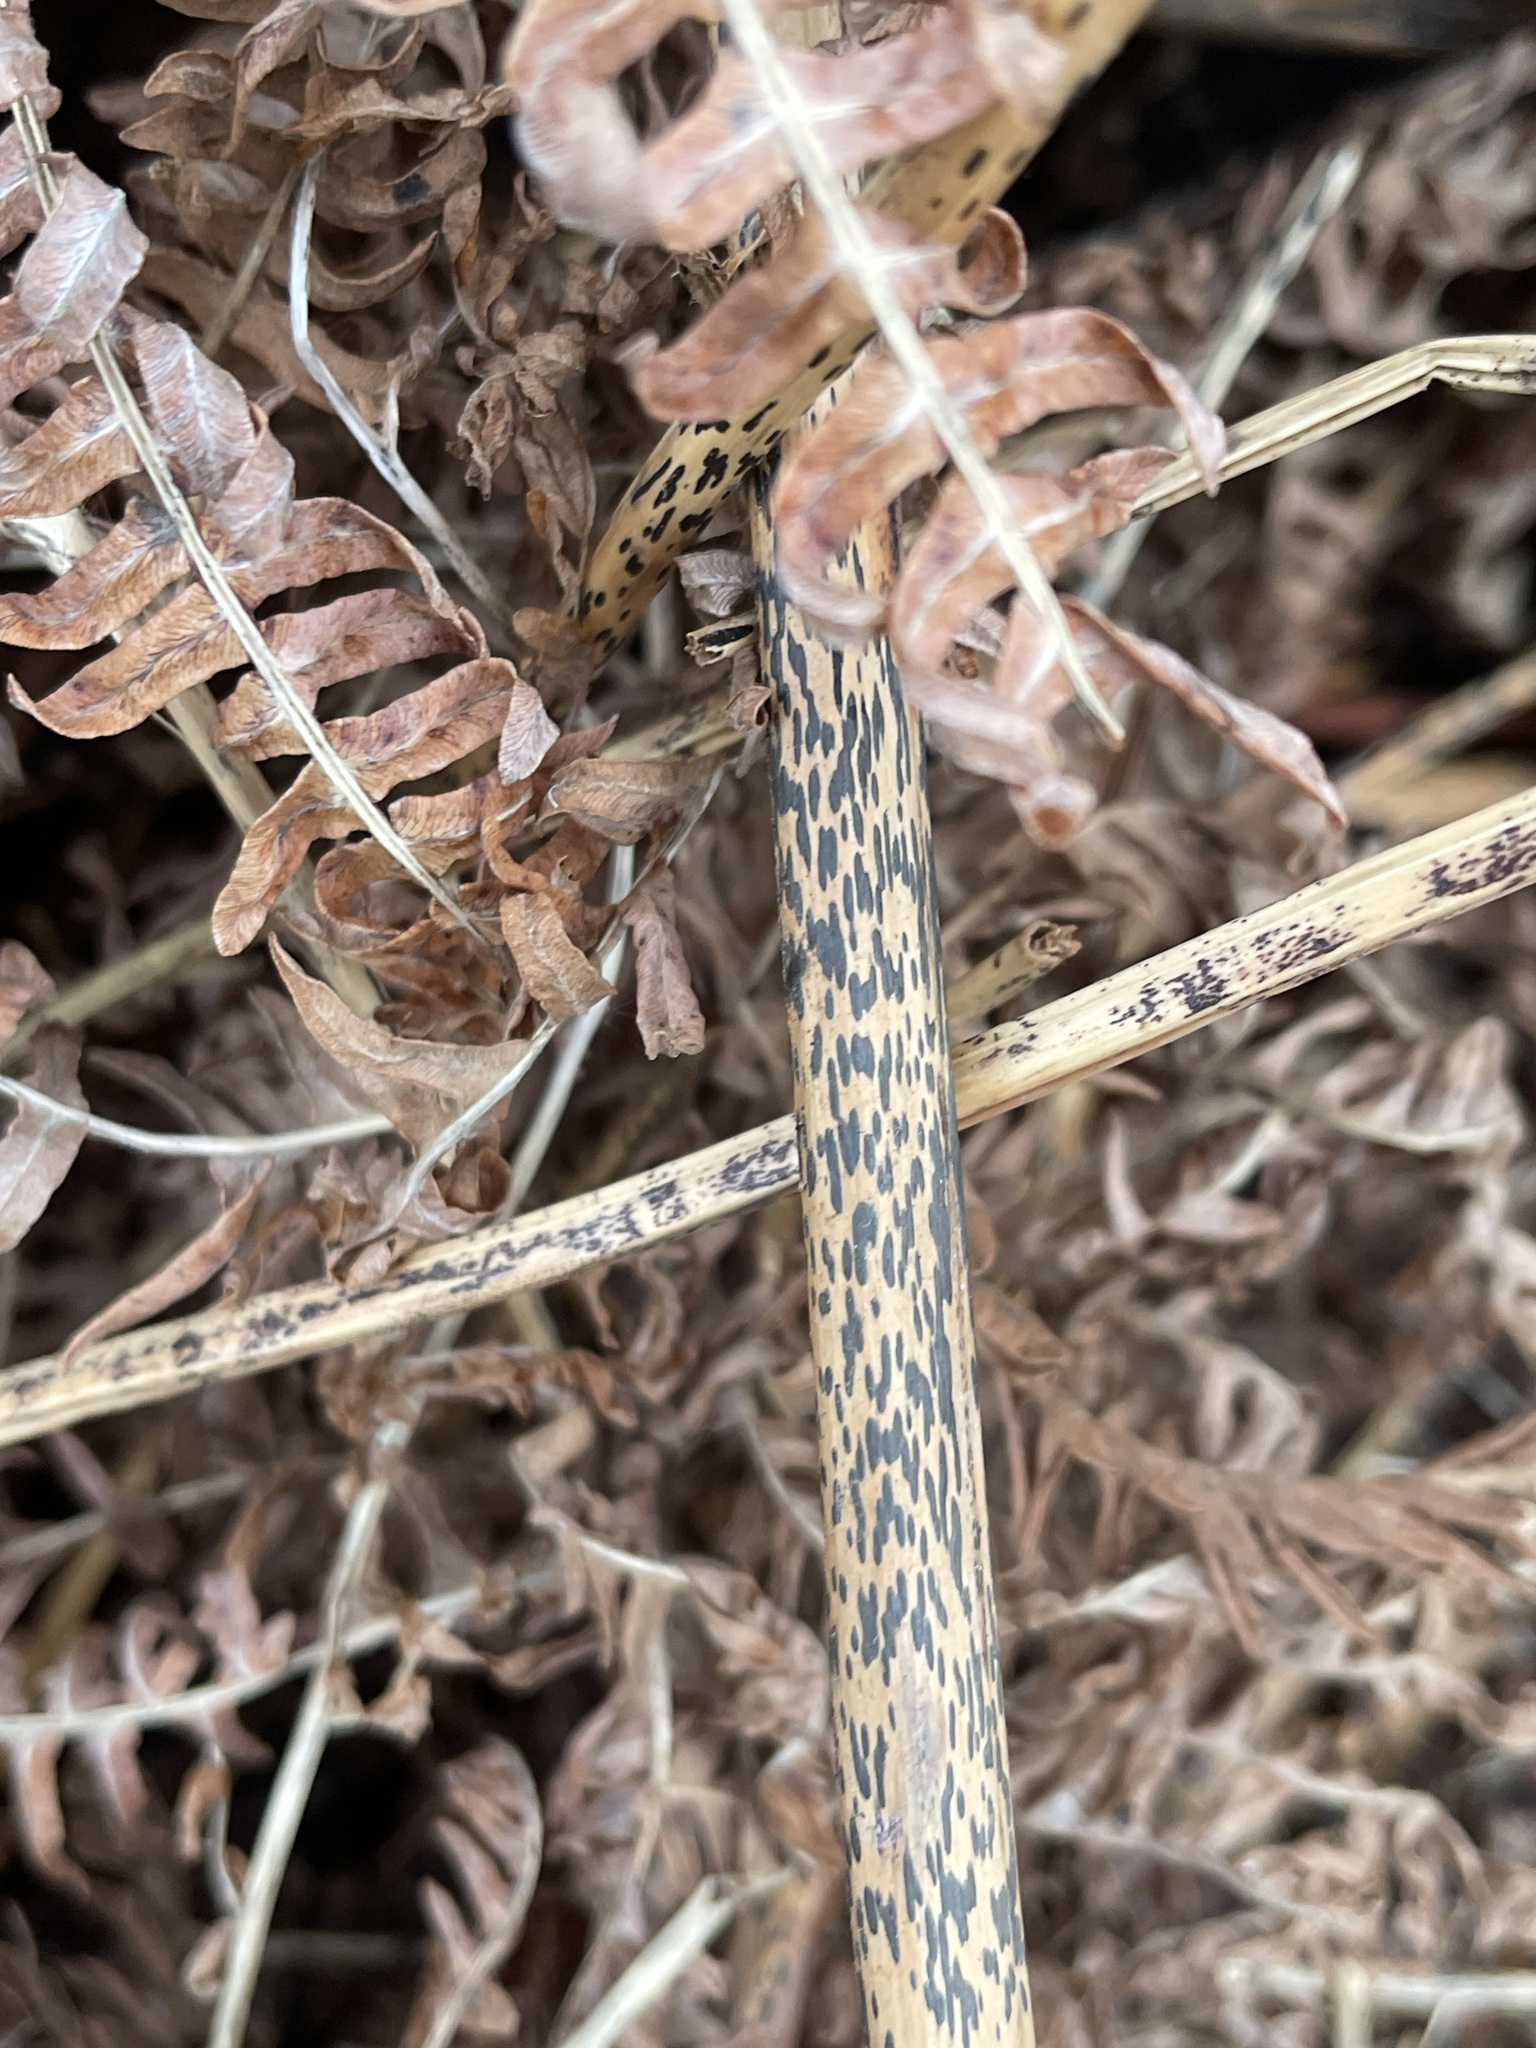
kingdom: Fungi
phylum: Ascomycota
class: Dothideomycetes
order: Pleosporales
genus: Rhopographus
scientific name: Rhopographus filicinus
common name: Bracken map
